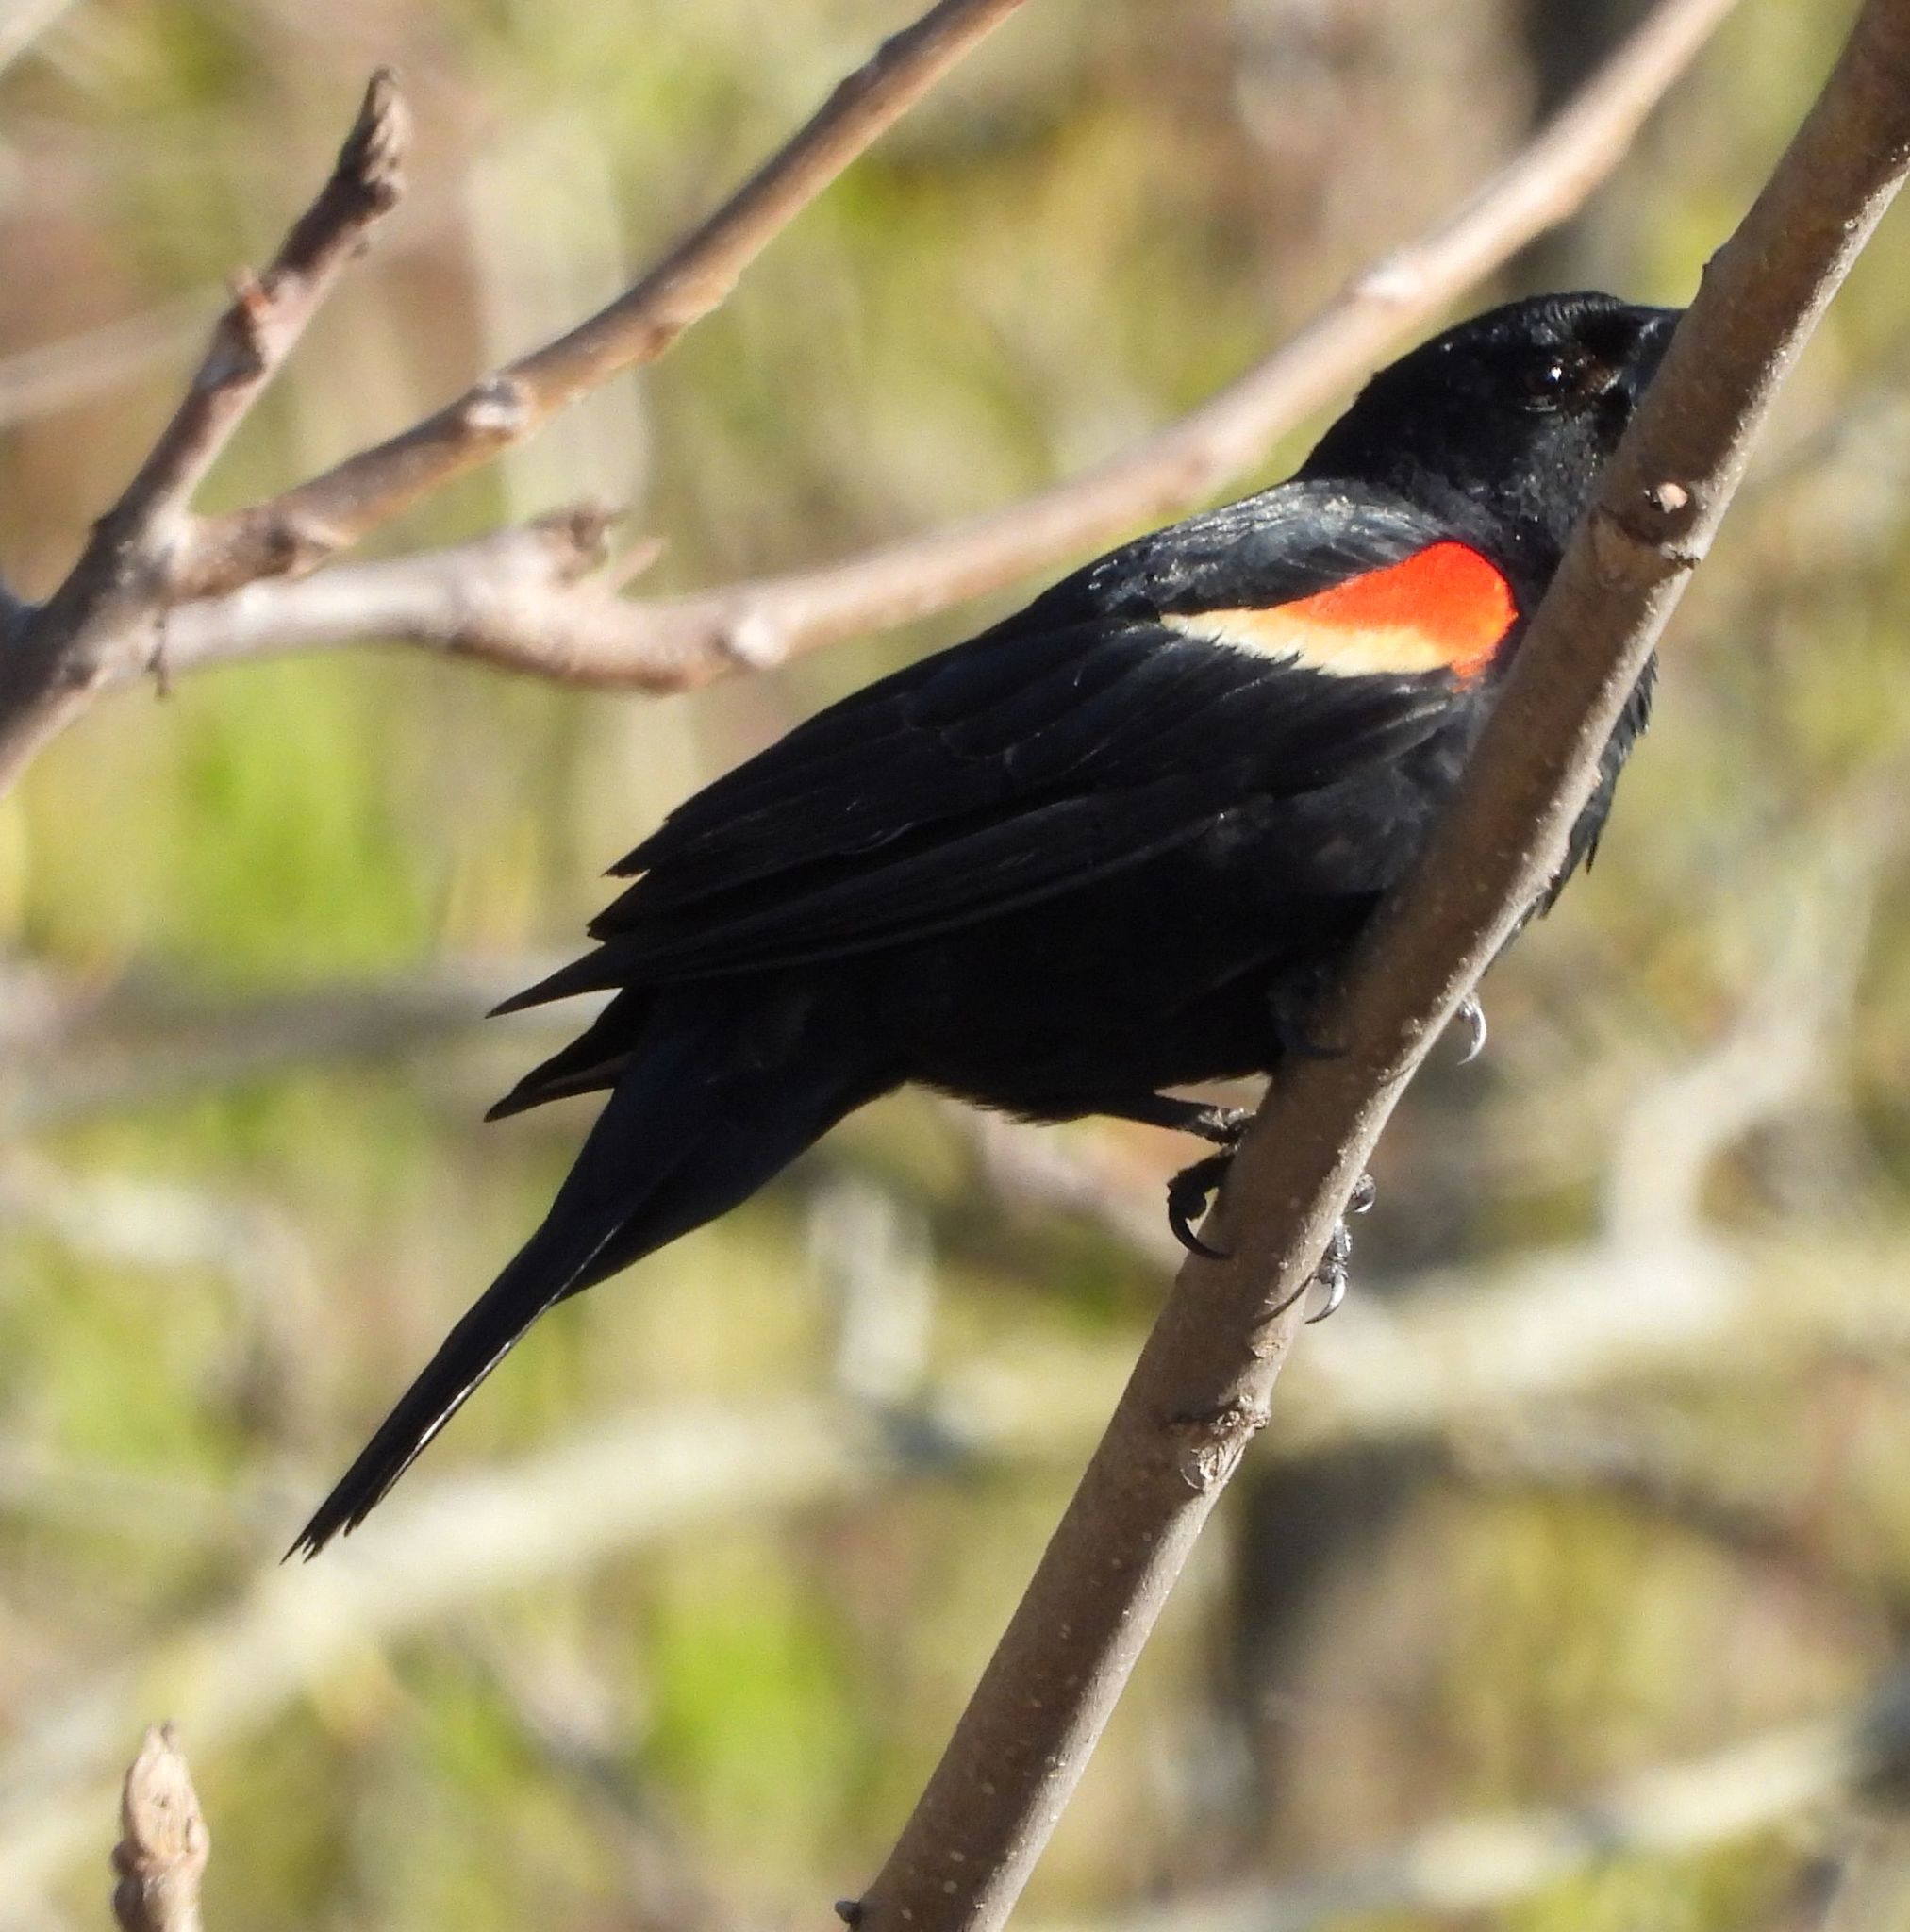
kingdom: Animalia
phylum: Chordata
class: Aves
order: Passeriformes
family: Icteridae
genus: Agelaius
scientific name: Agelaius phoeniceus
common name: Red-winged blackbird
